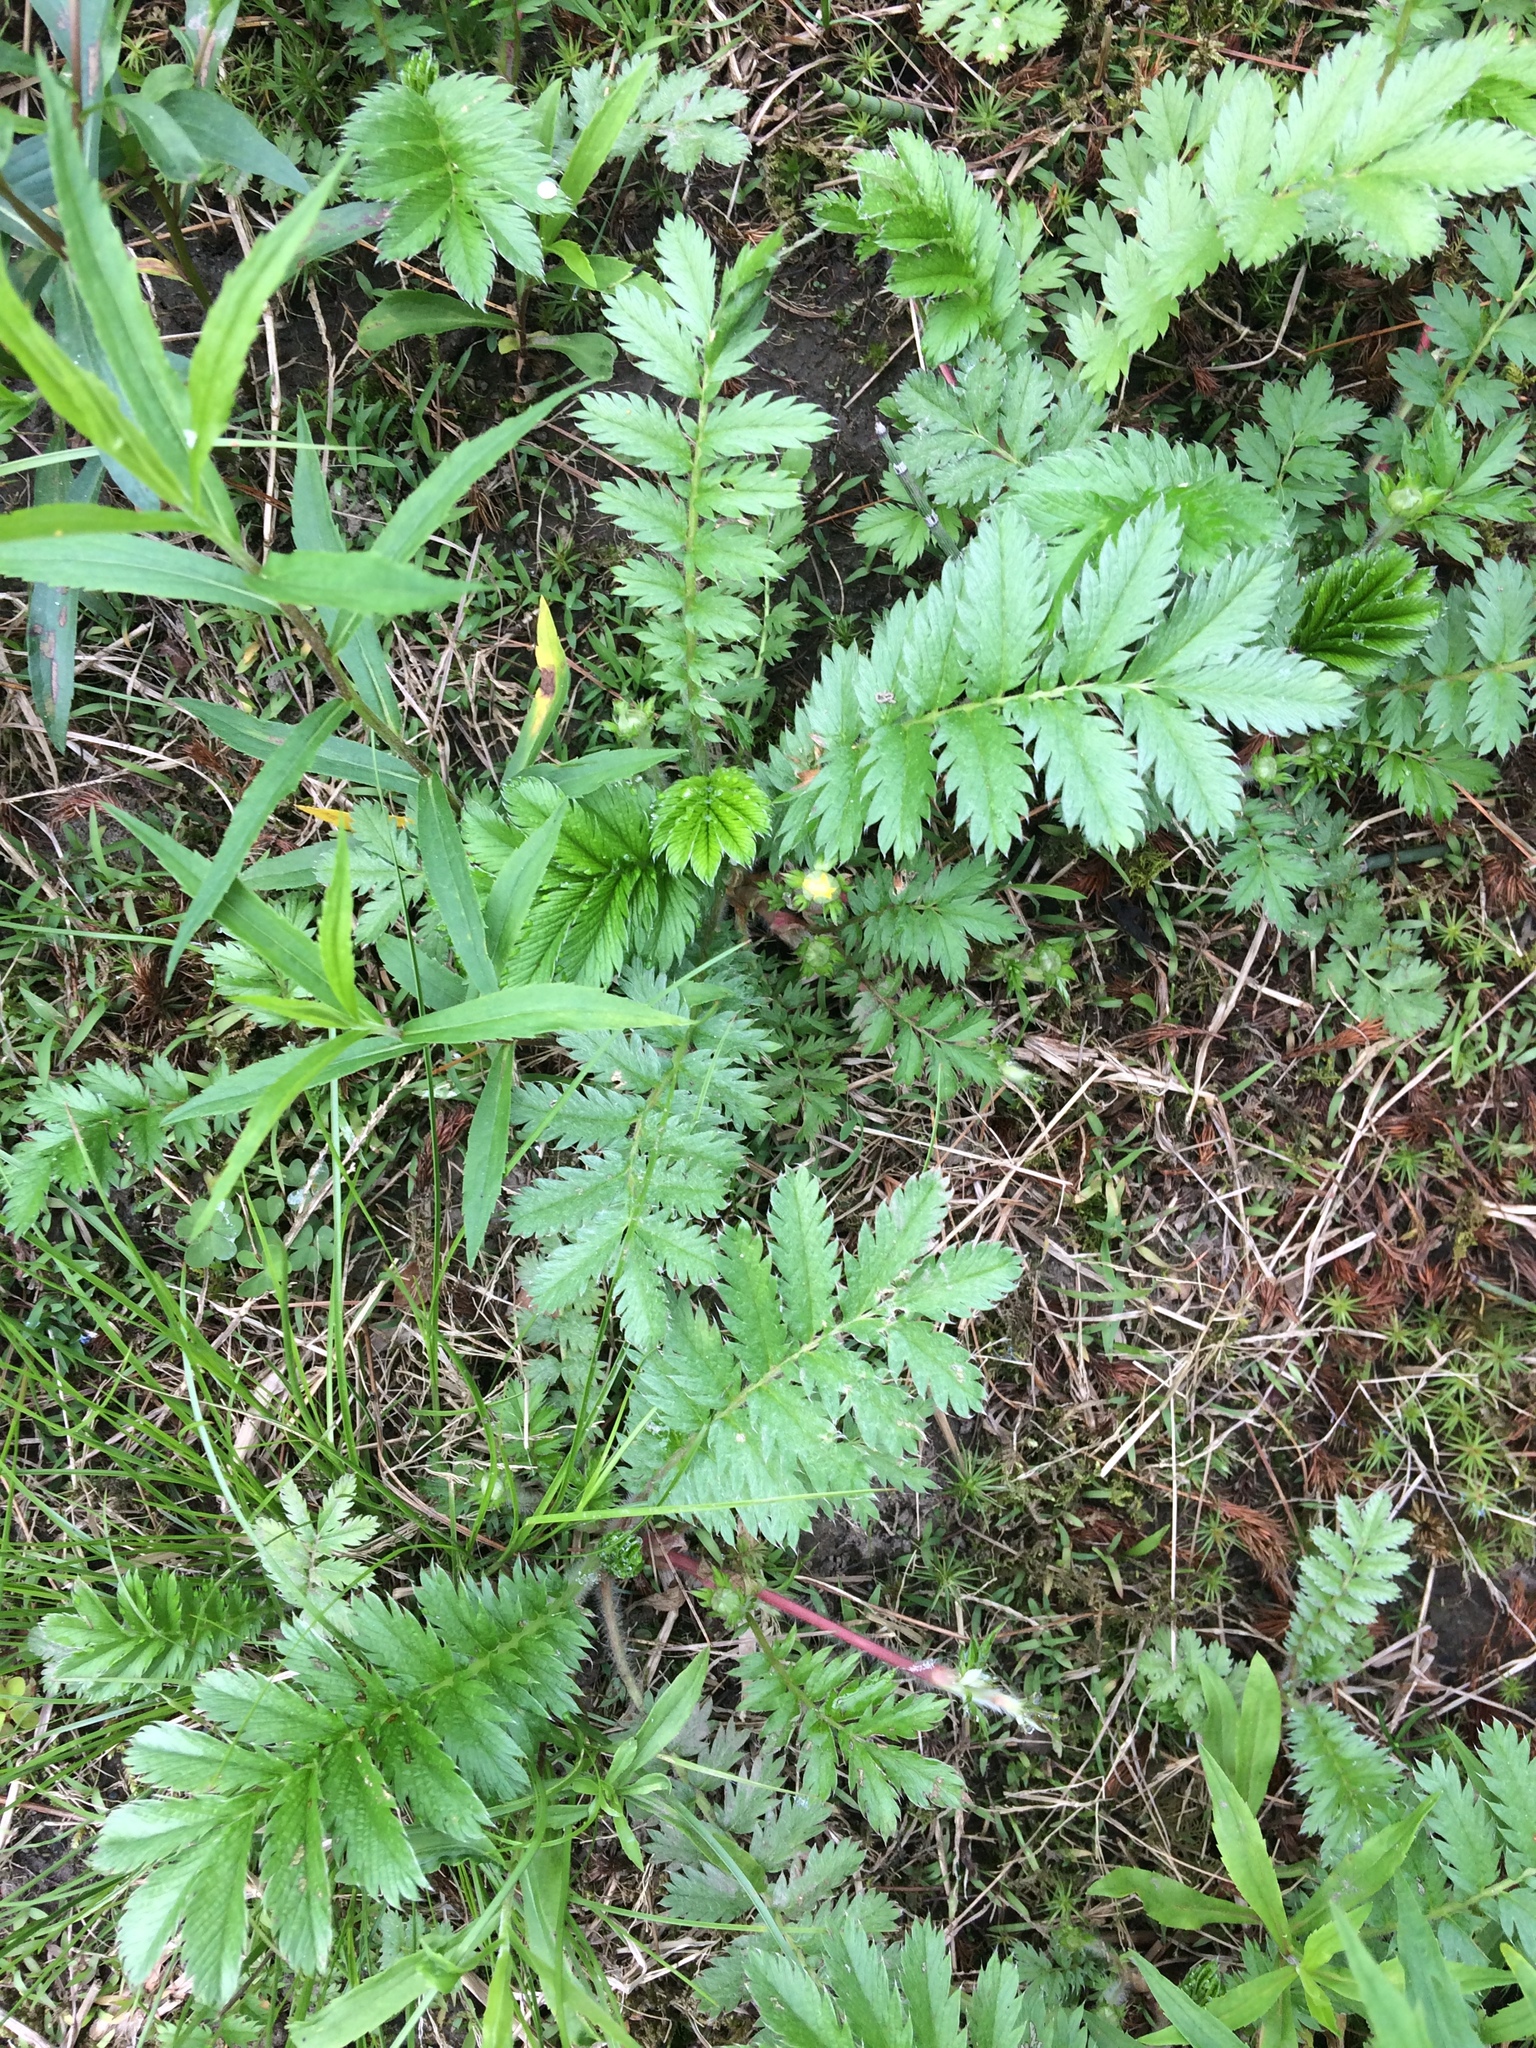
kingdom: Plantae
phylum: Tracheophyta
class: Magnoliopsida
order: Rosales
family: Rosaceae
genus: Argentina
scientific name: Argentina anserina
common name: Common silverweed
